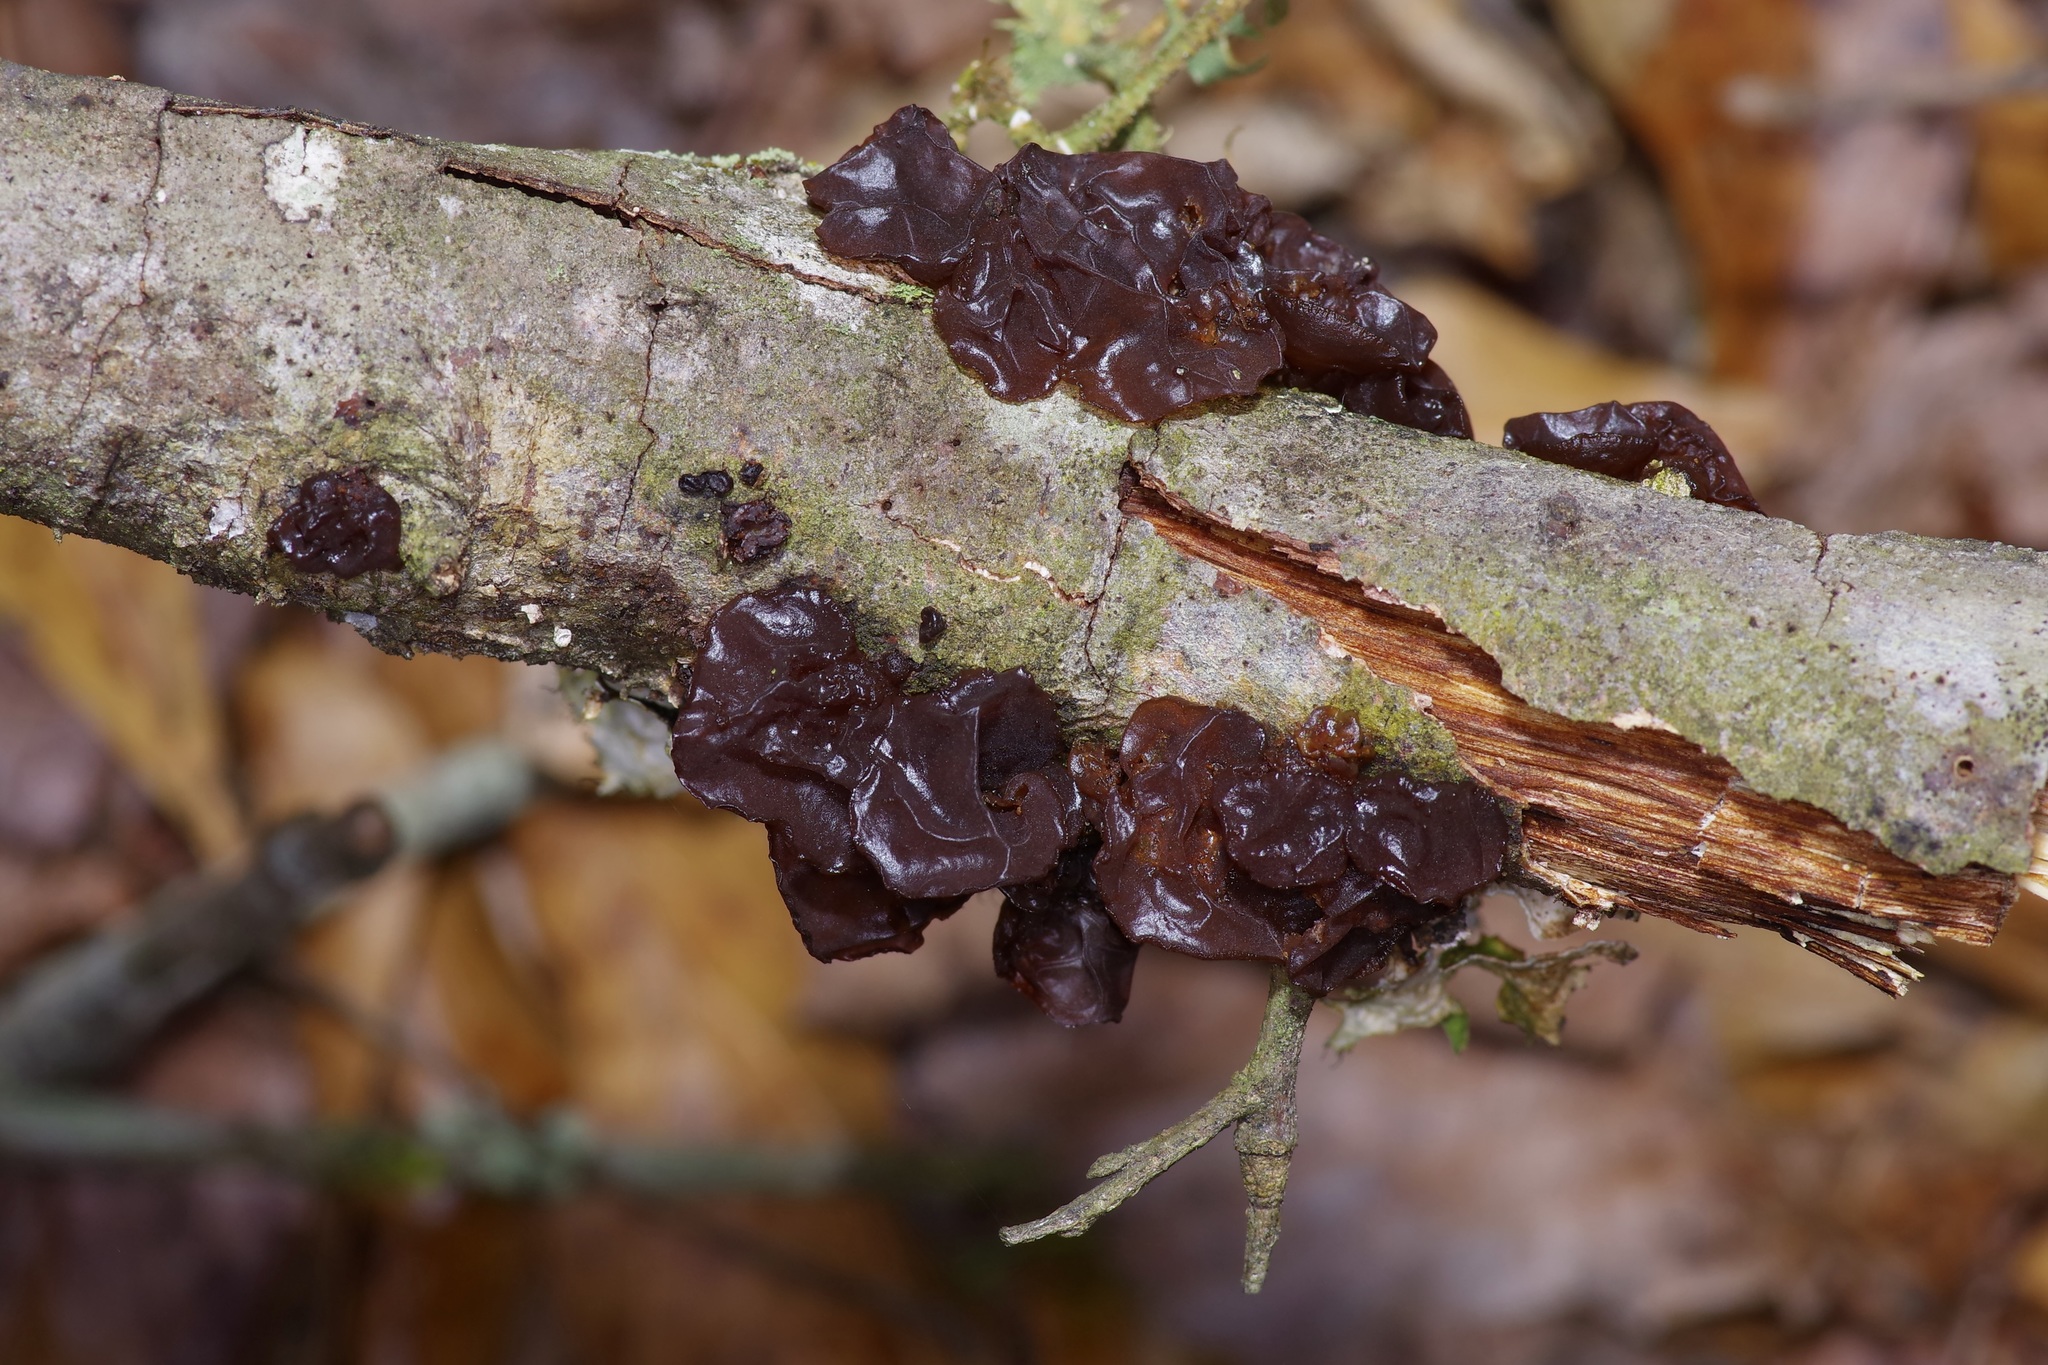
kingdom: Fungi
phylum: Basidiomycota
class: Agaricomycetes
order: Auriculariales
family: Auriculariaceae
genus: Exidia
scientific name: Exidia
